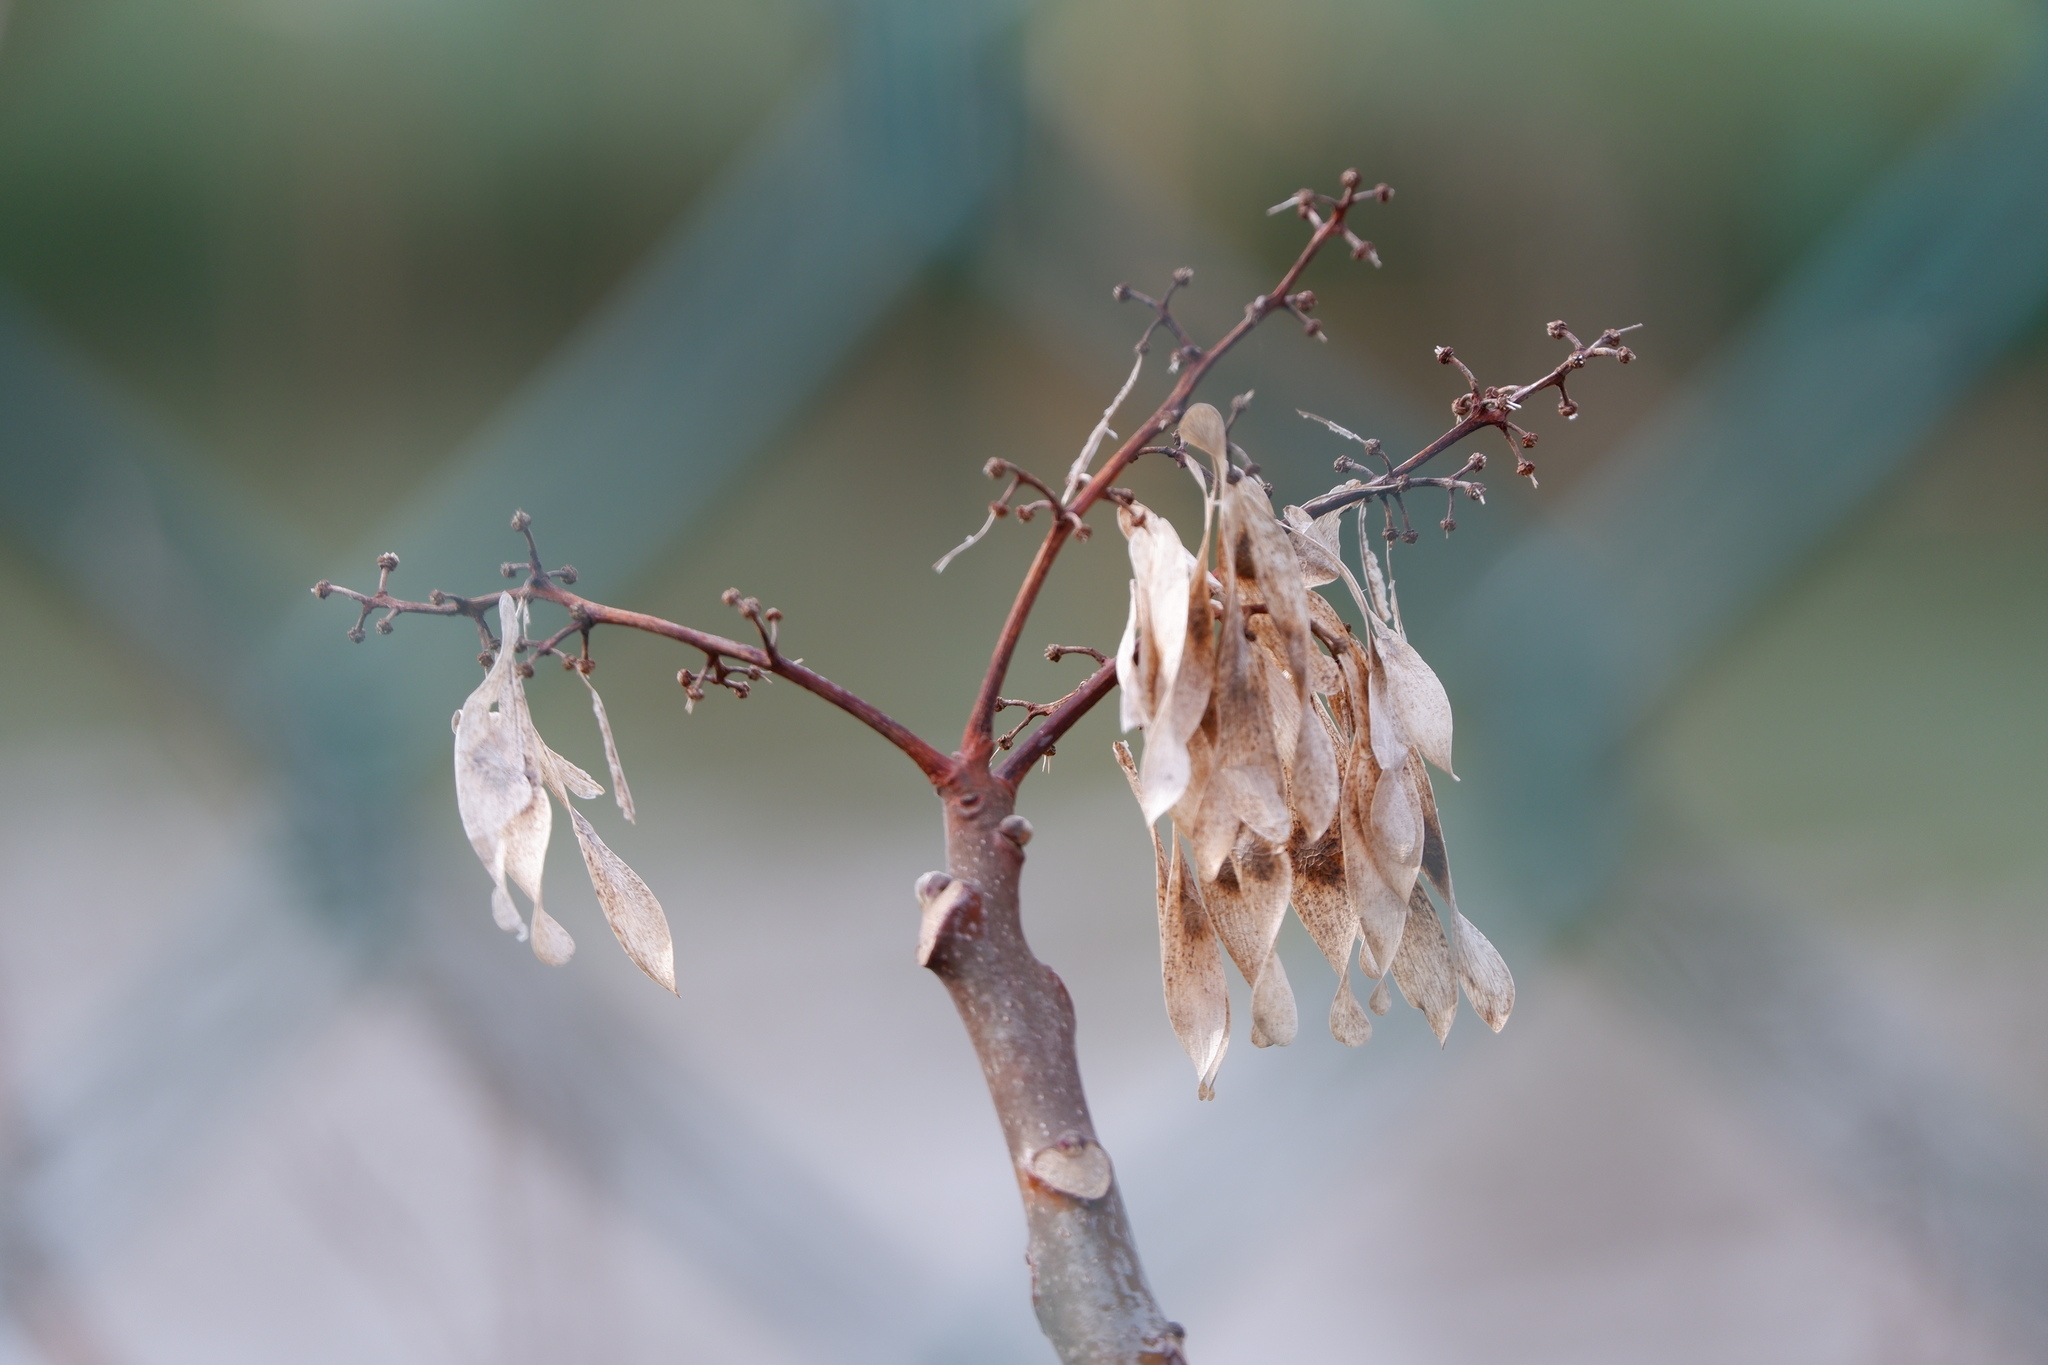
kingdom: Plantae
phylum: Tracheophyta
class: Magnoliopsida
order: Sapindales
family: Simaroubaceae
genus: Ailanthus
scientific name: Ailanthus altissima
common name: Tree-of-heaven
